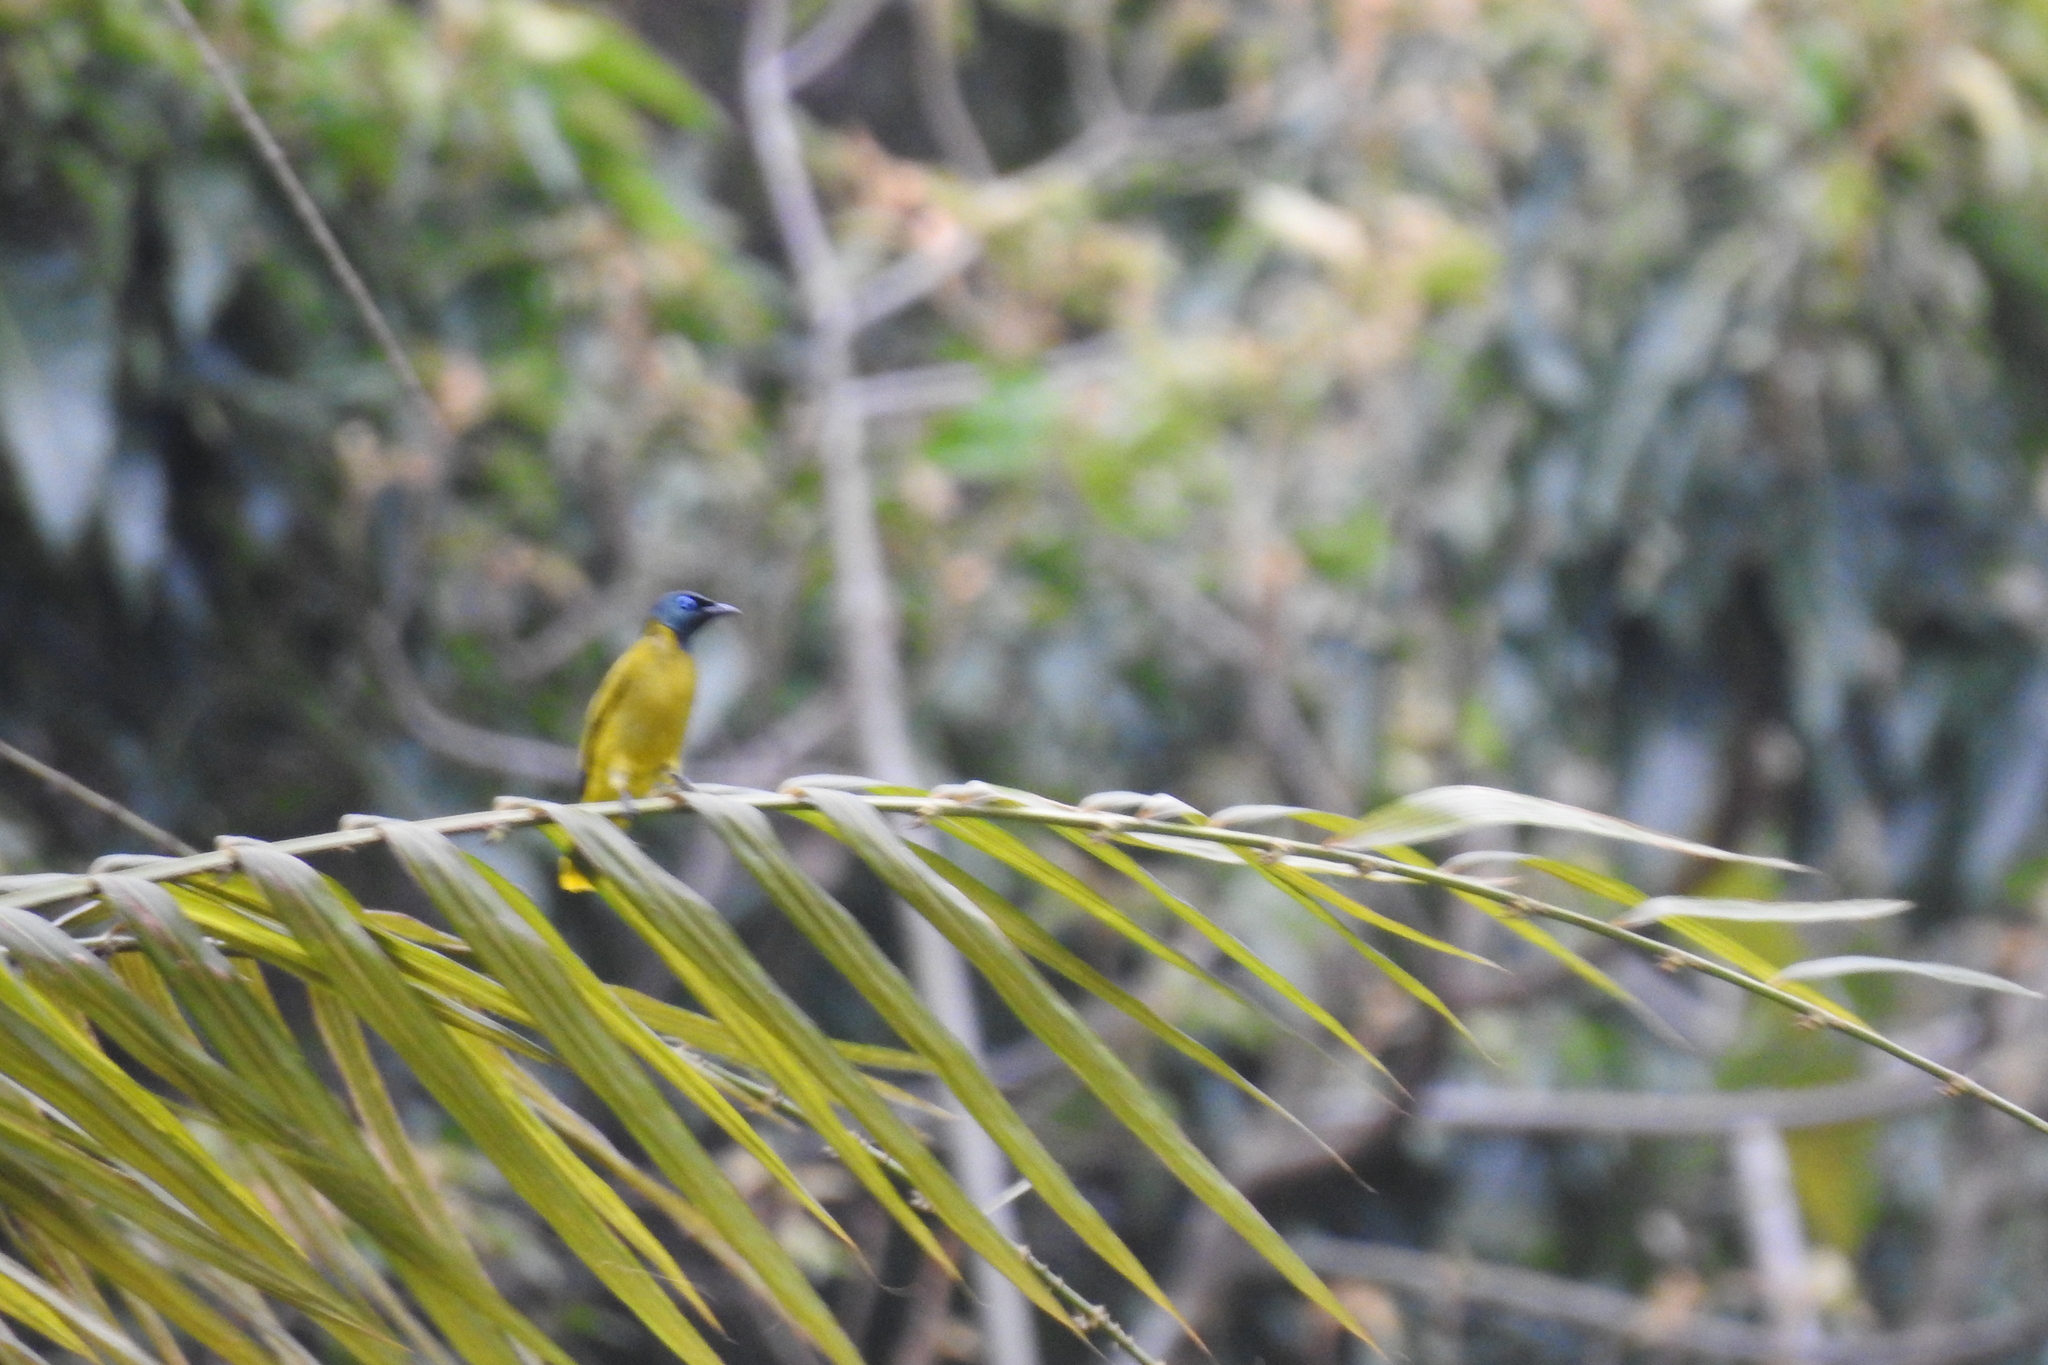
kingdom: Animalia
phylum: Chordata
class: Aves
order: Passeriformes
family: Pycnonotidae
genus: Microtarsus
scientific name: Microtarsus
